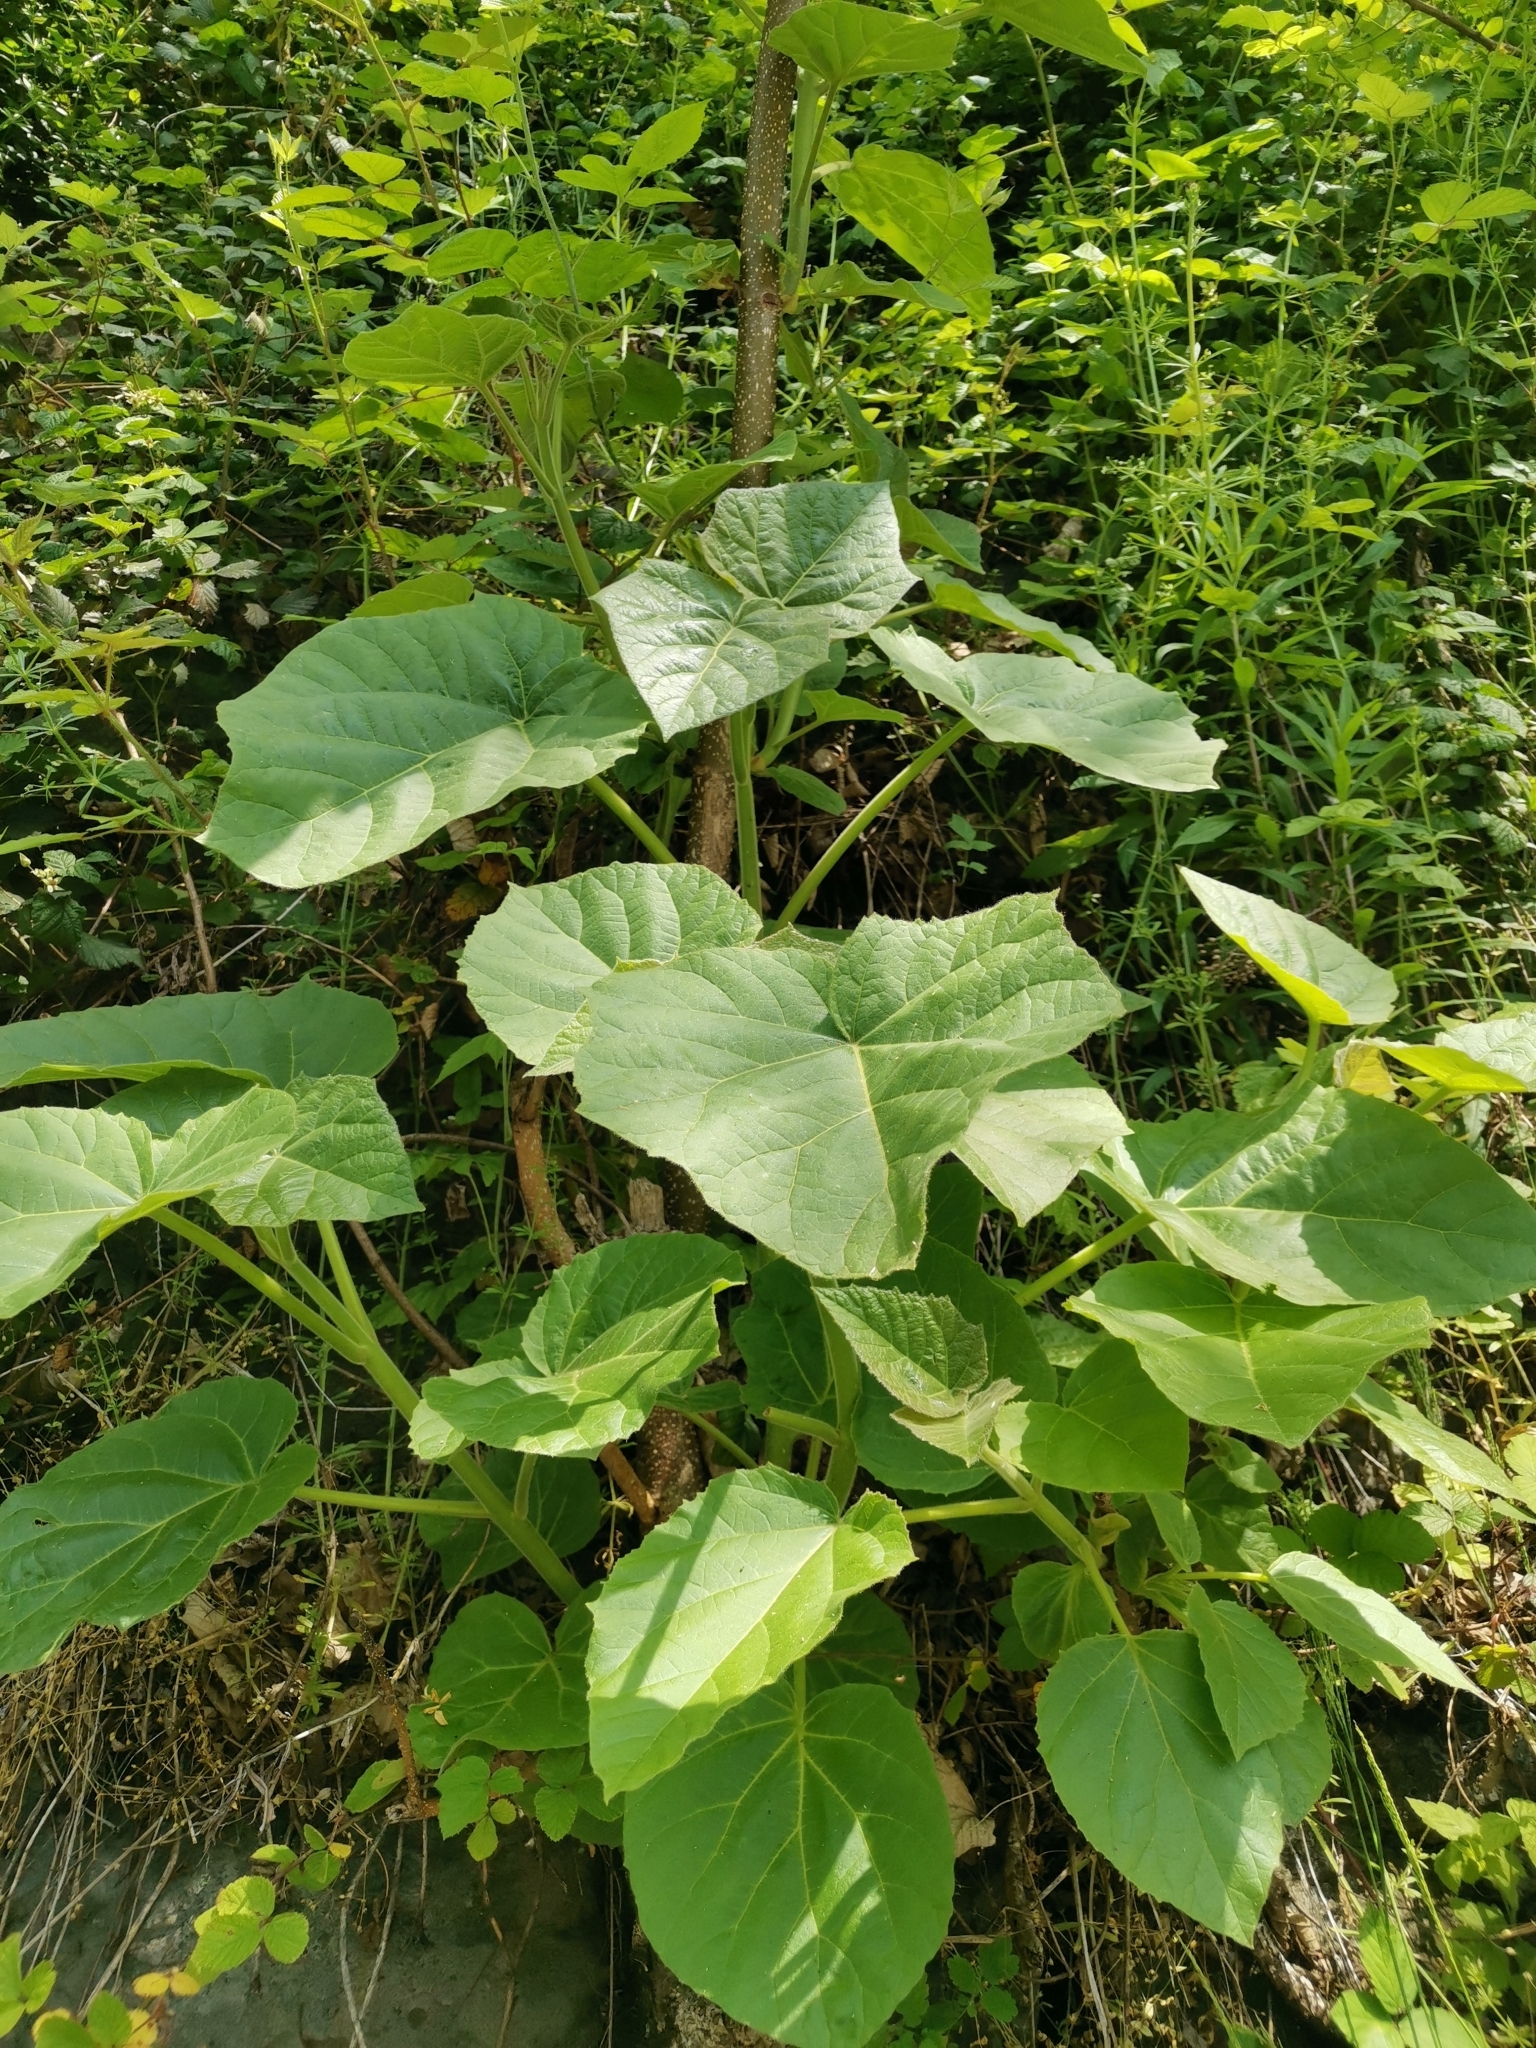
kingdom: Plantae
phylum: Tracheophyta
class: Magnoliopsida
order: Lamiales
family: Paulowniaceae
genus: Paulownia
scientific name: Paulownia tomentosa
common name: Foxglove-tree
